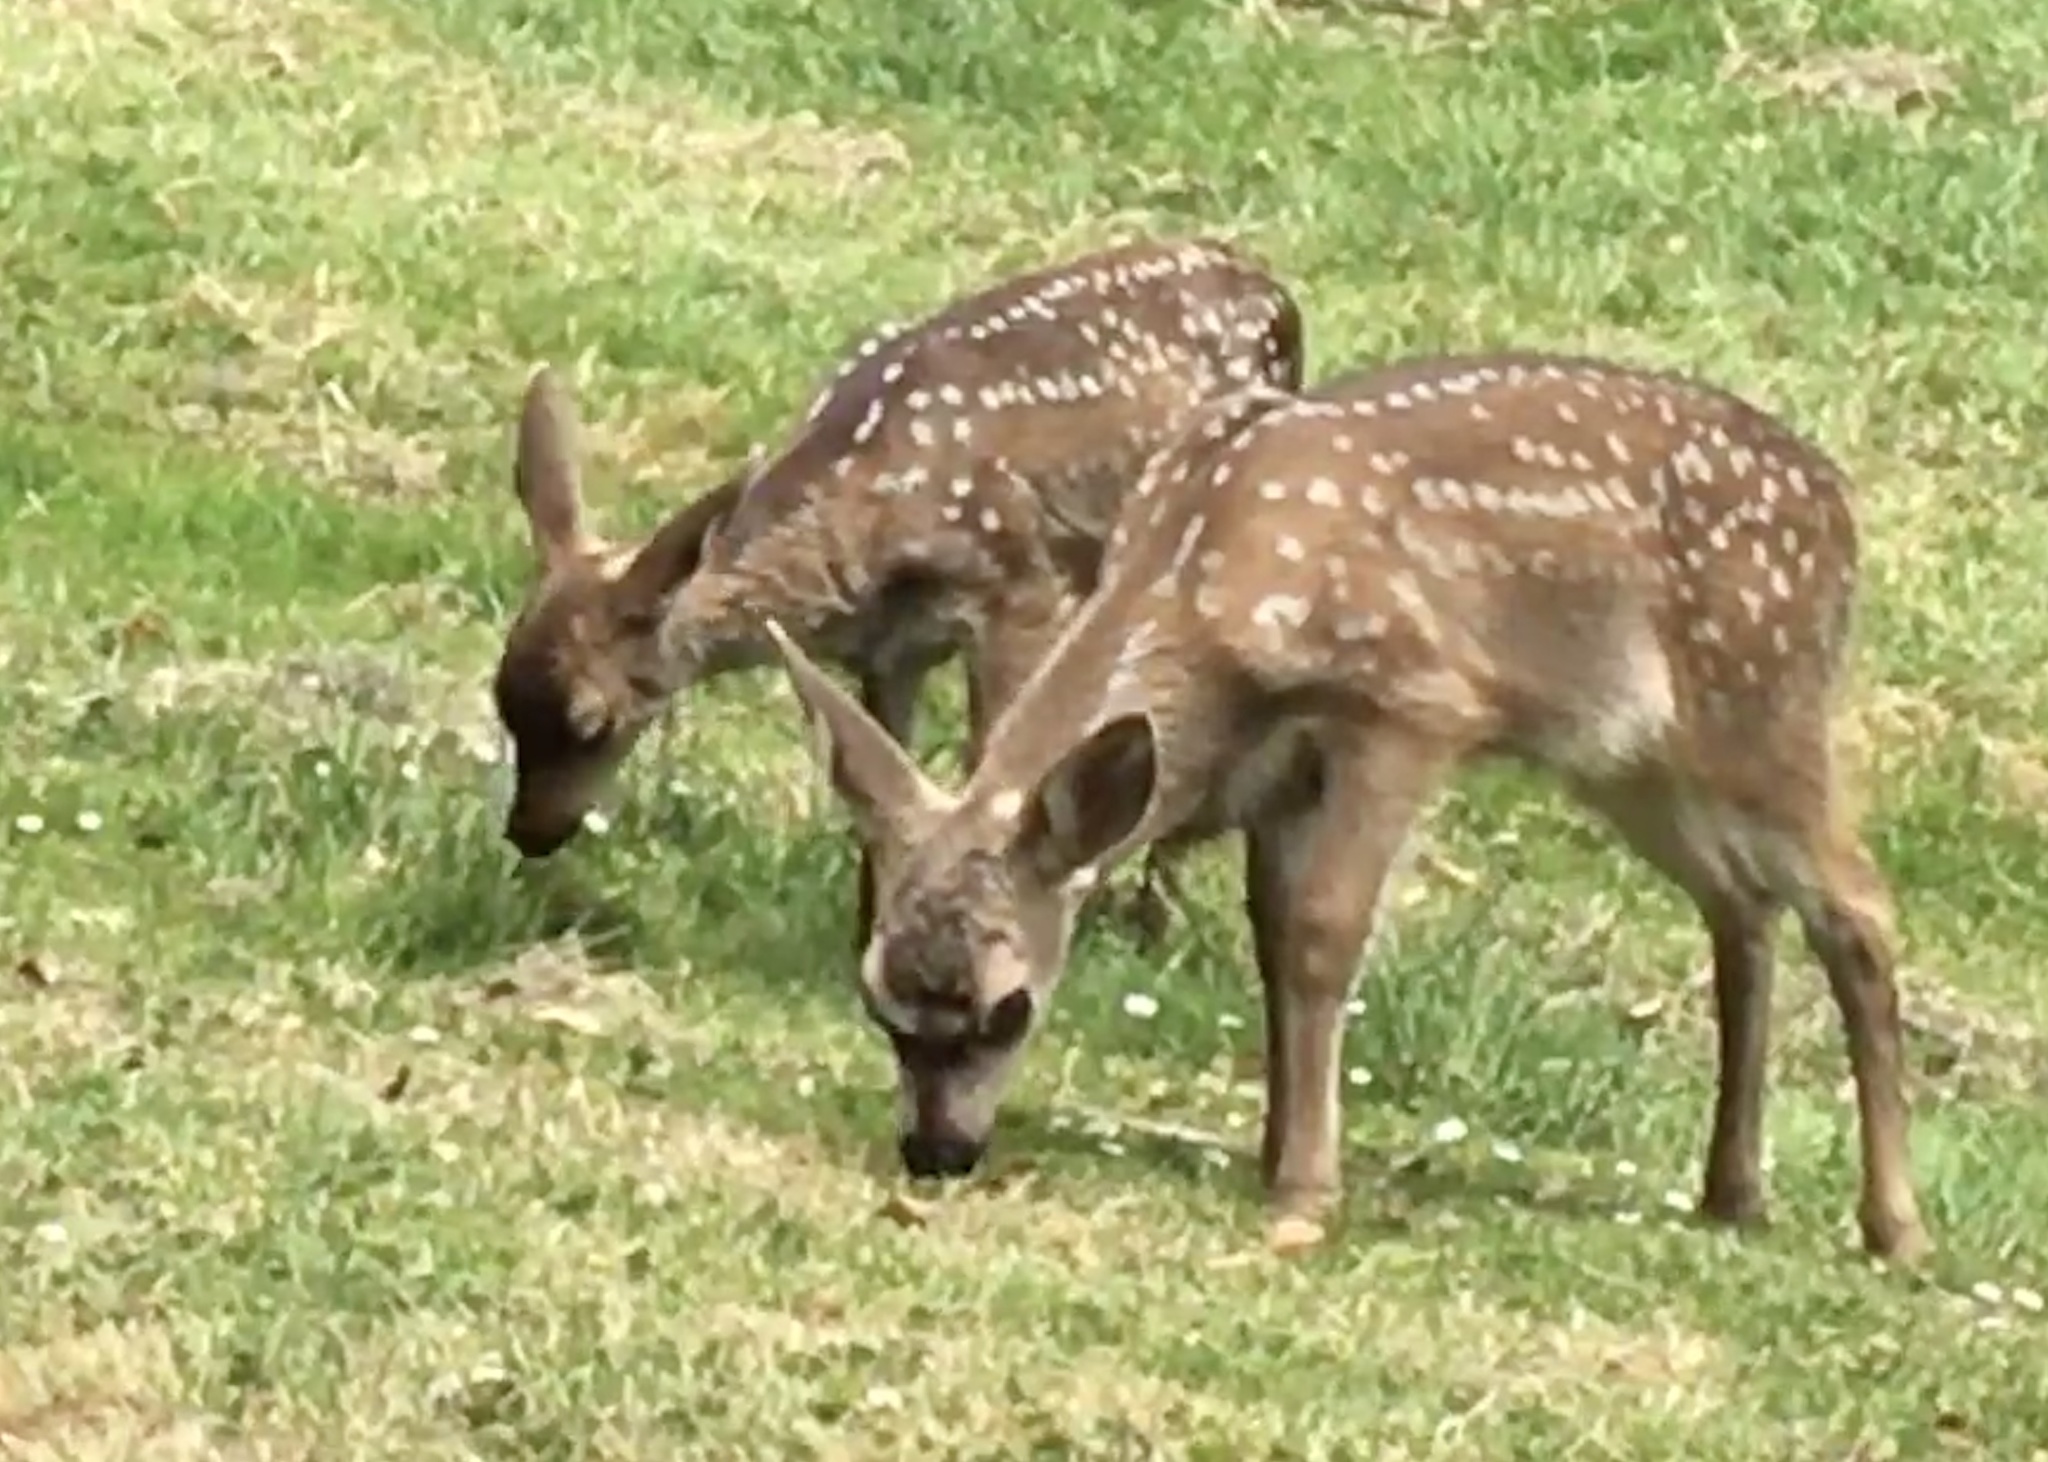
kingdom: Animalia
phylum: Chordata
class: Mammalia
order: Artiodactyla
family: Cervidae
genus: Odocoileus
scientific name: Odocoileus hemionus
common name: Mule deer
